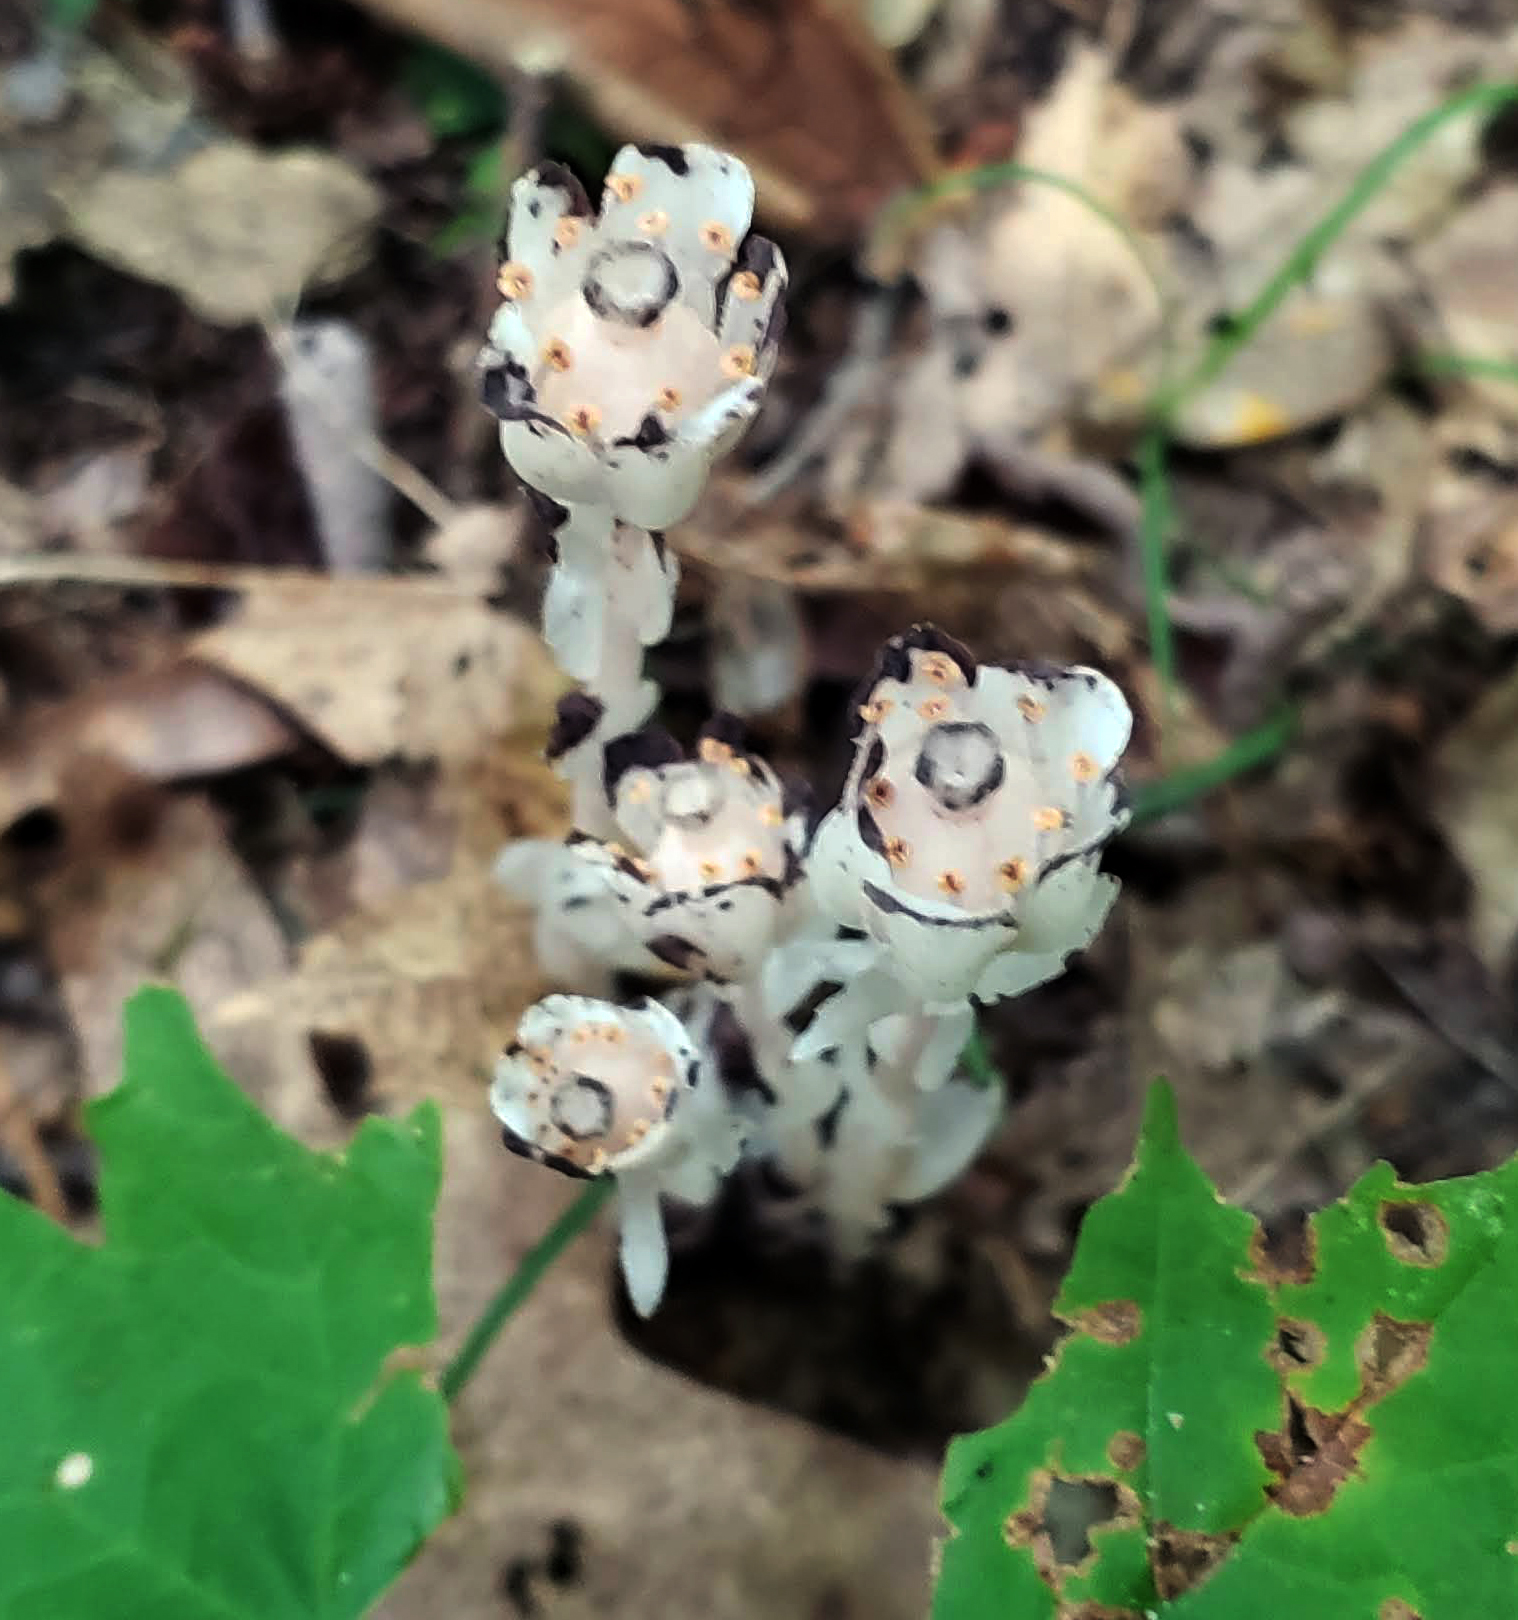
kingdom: Plantae
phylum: Tracheophyta
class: Magnoliopsida
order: Ericales
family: Ericaceae
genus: Monotropa
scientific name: Monotropa uniflora
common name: Convulsion root
